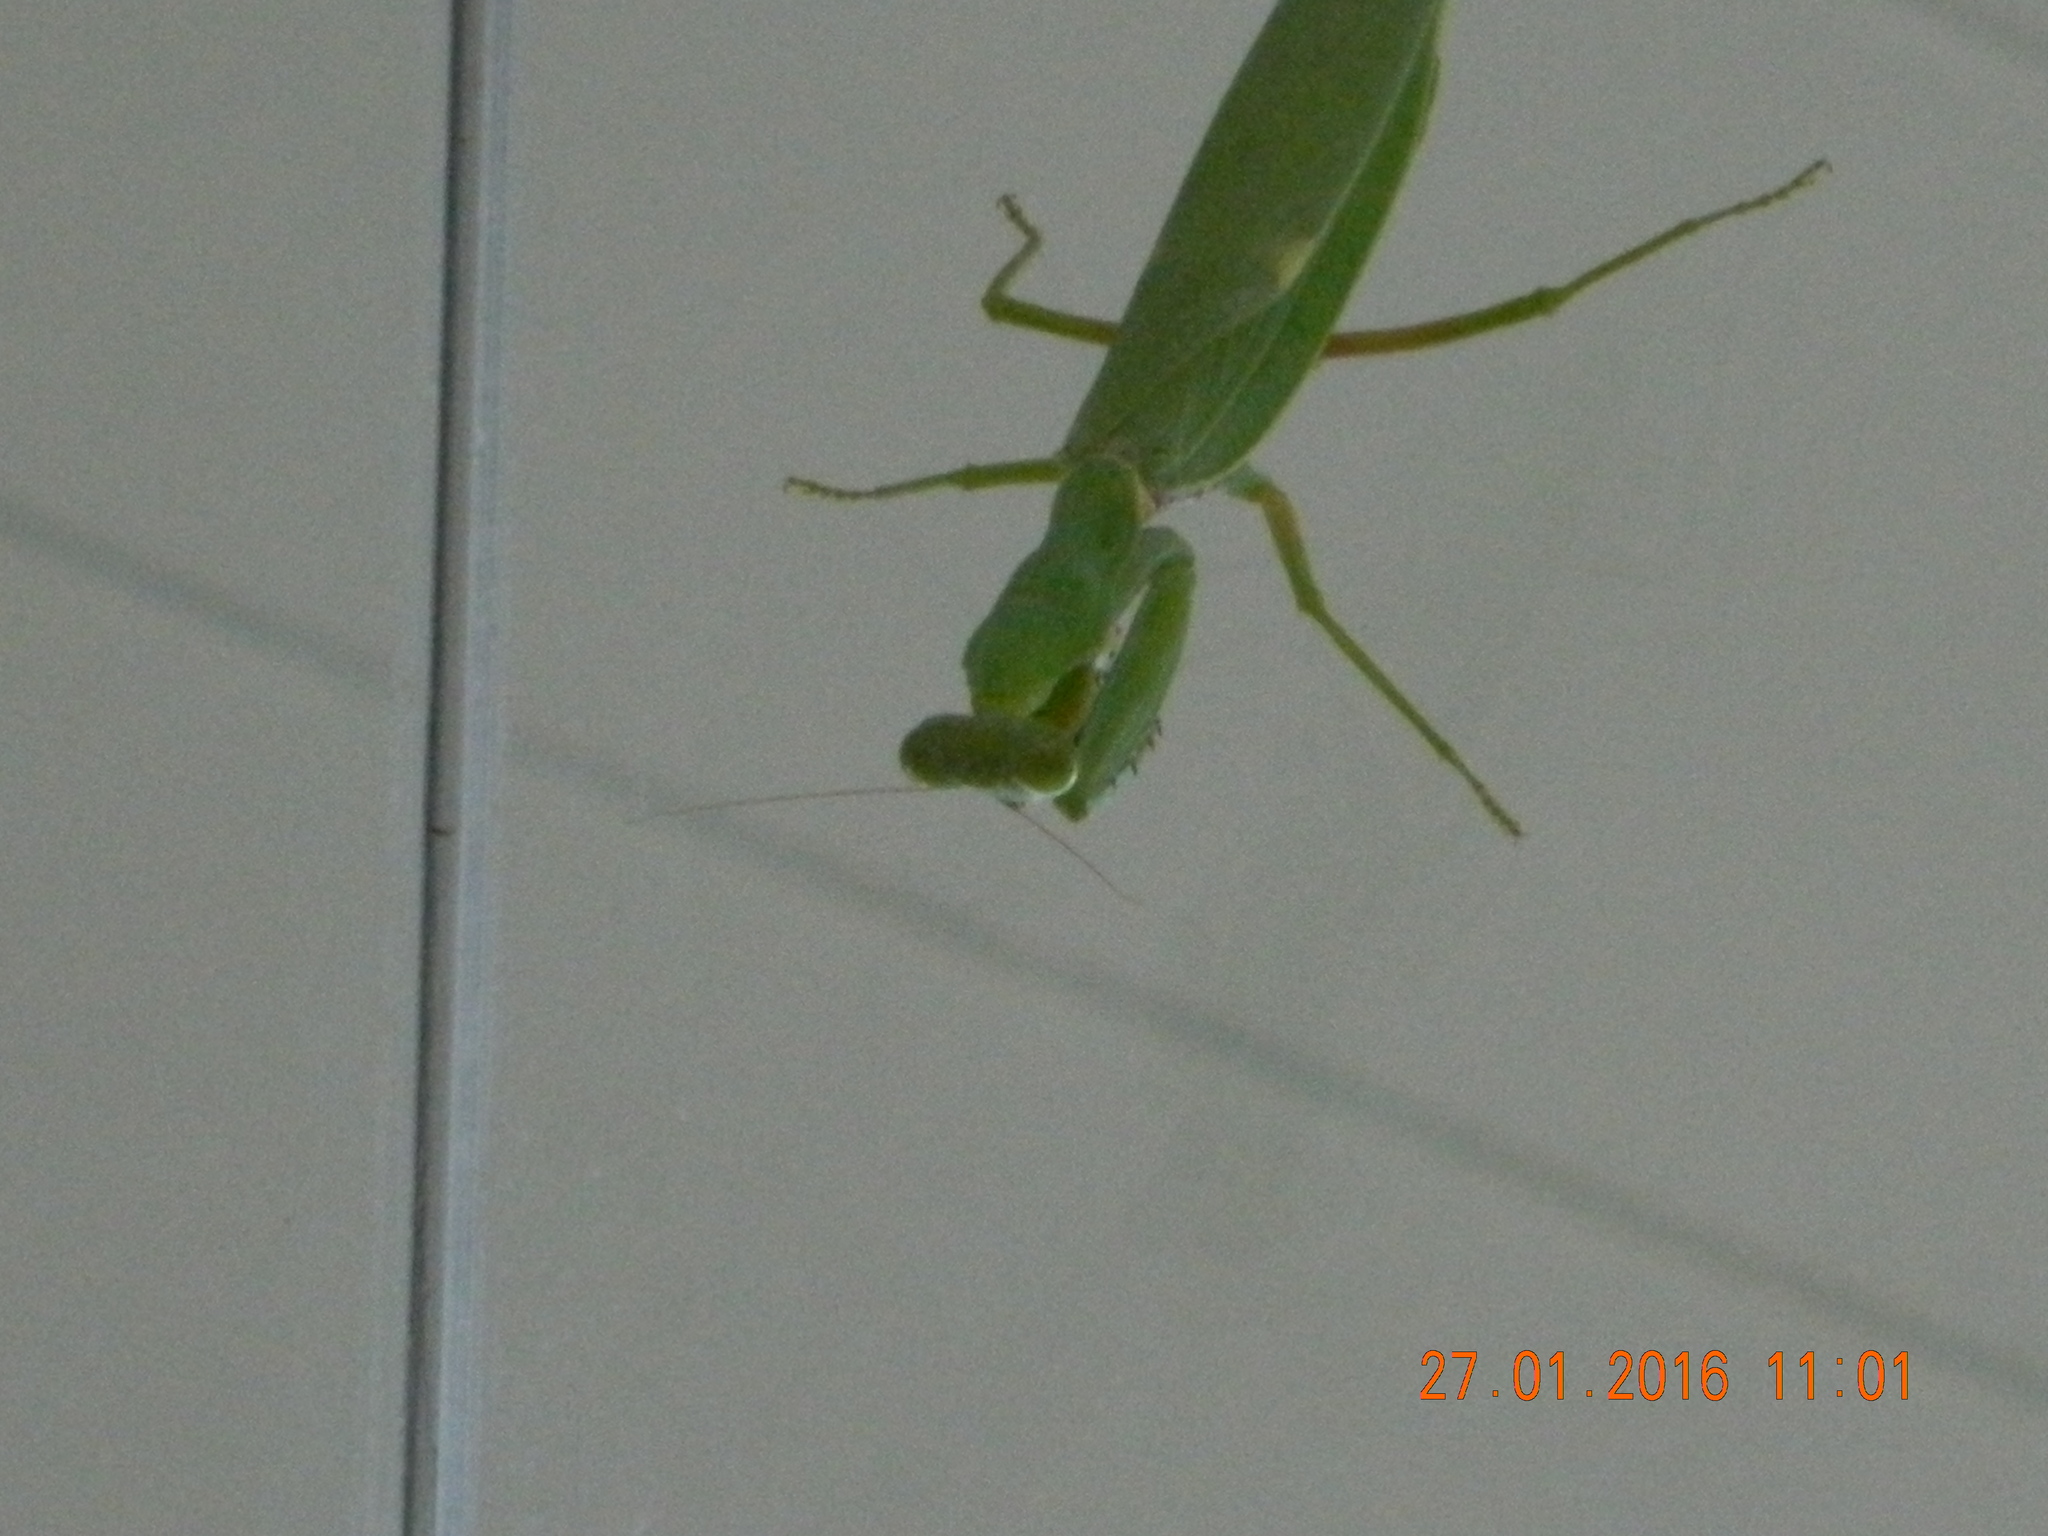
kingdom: Animalia
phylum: Arthropoda
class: Insecta
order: Mantodea
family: Mantidae
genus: Hierodula
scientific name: Hierodula patellifera
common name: Asian mantis
